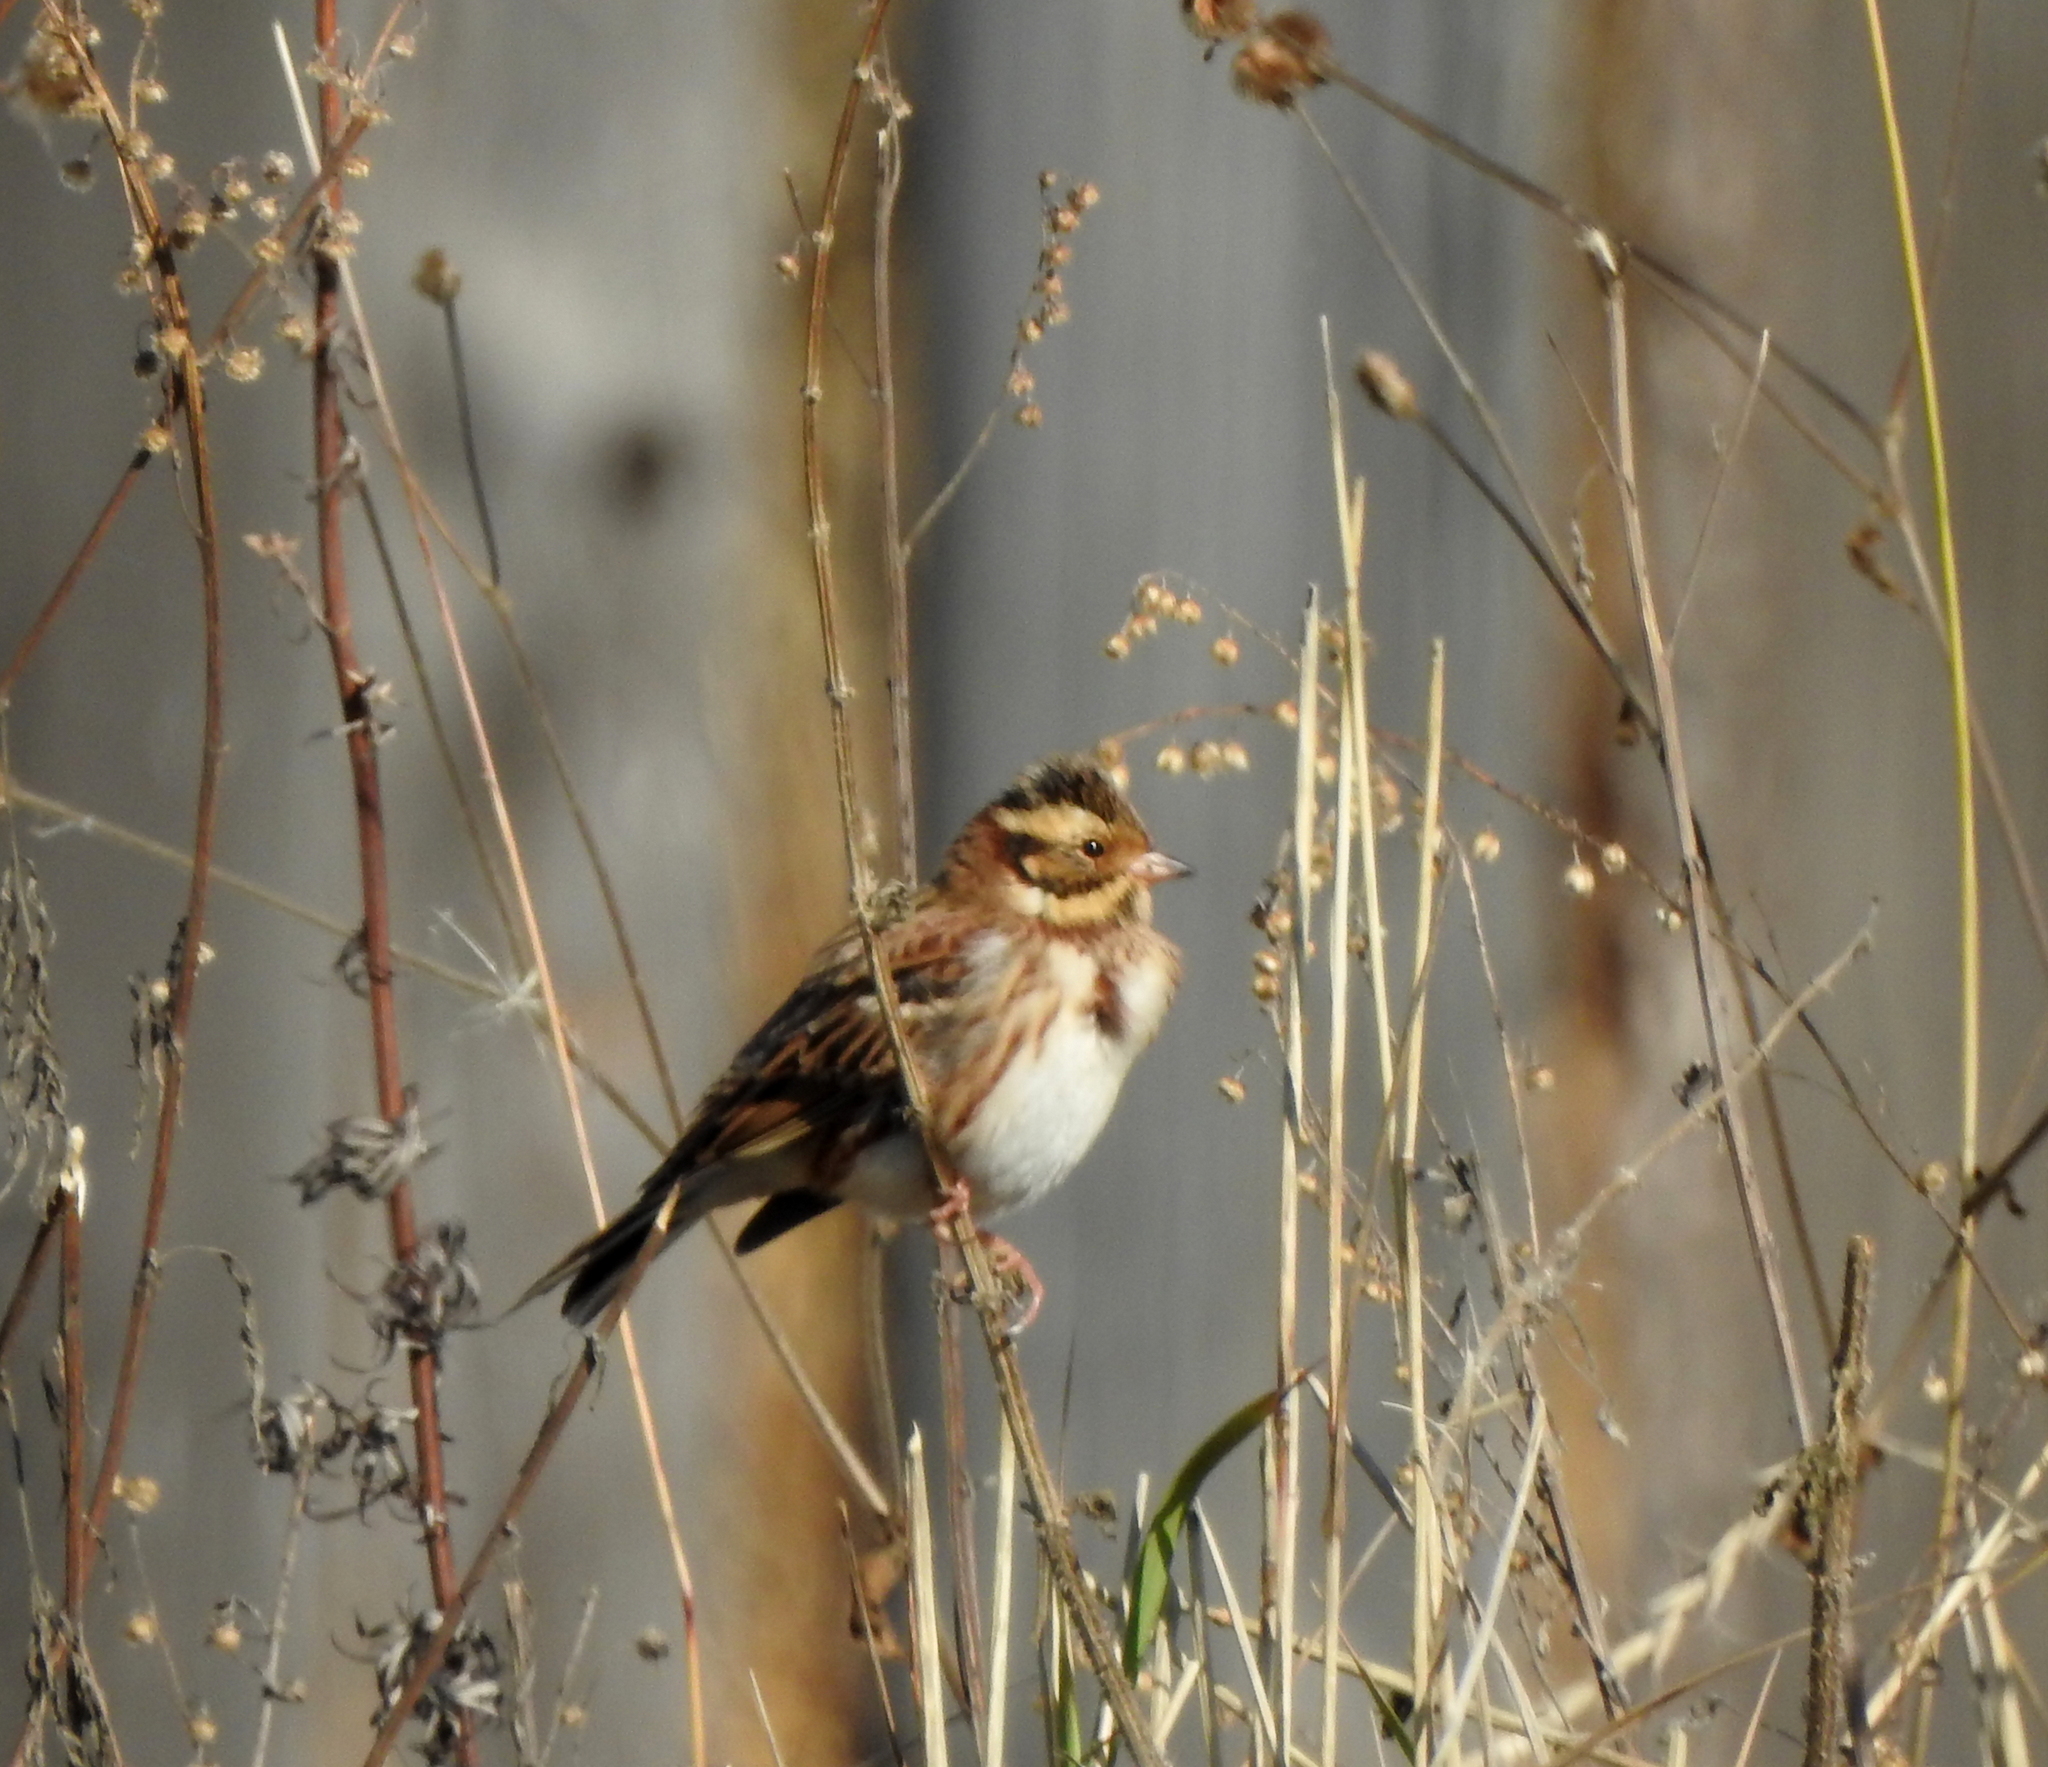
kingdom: Animalia
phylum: Chordata
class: Aves
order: Passeriformes
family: Emberizidae
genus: Emberiza
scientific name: Emberiza rustica
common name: Rustic bunting
